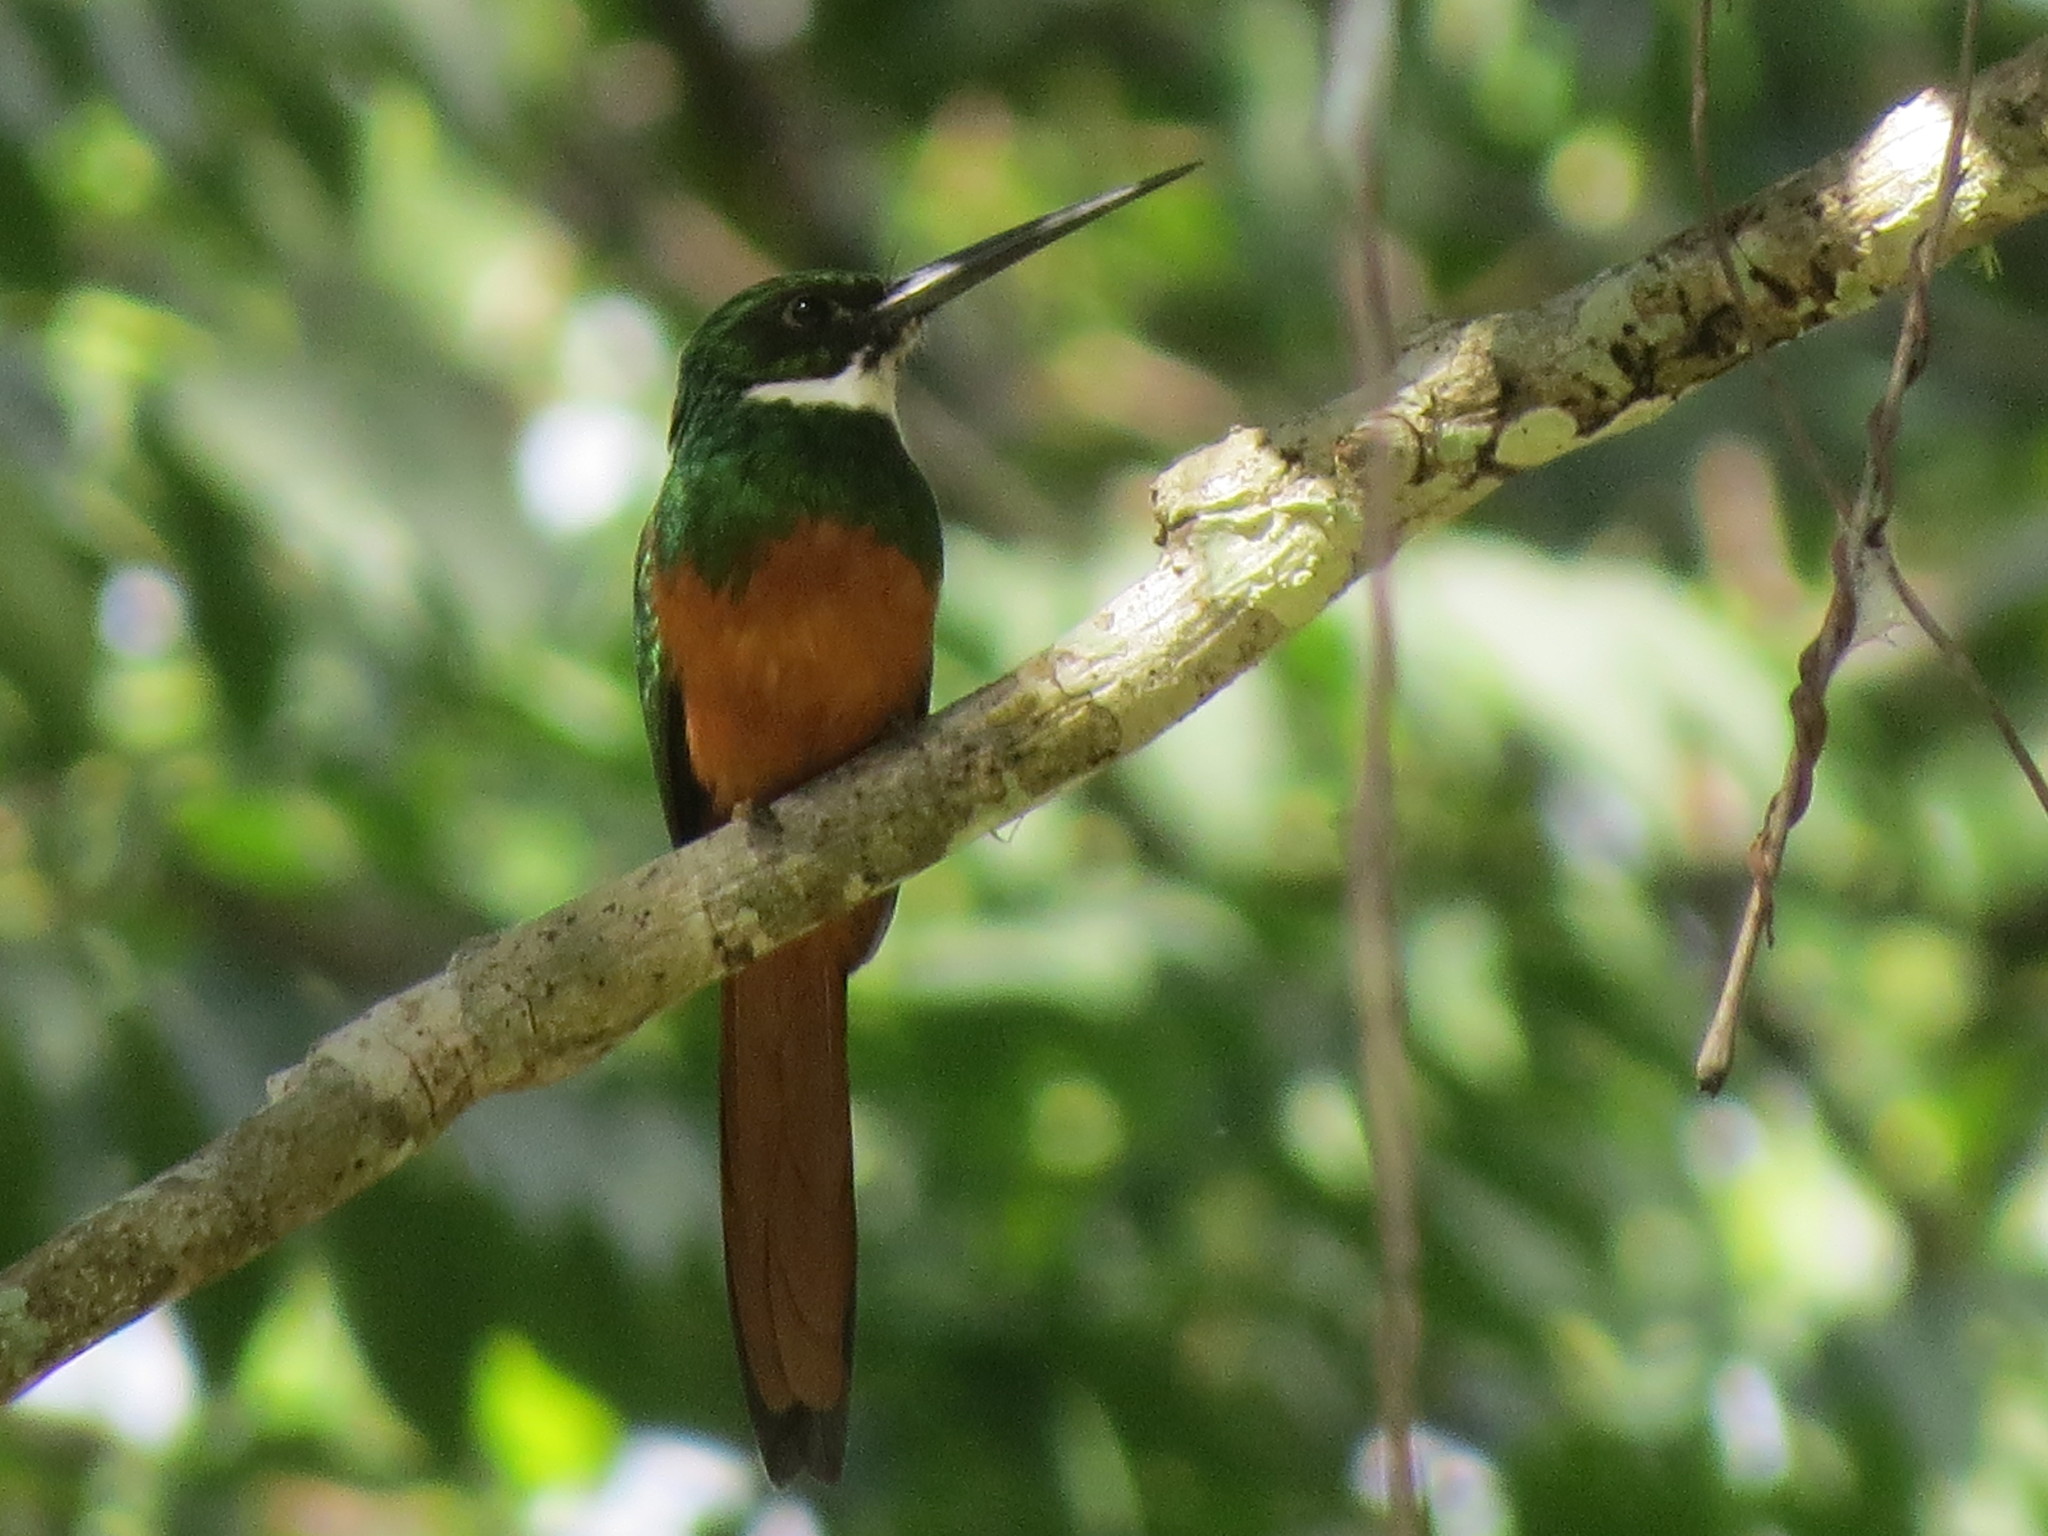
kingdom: Animalia
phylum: Chordata
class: Aves
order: Piciformes
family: Galbulidae
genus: Galbula
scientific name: Galbula ruficauda
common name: Rufous-tailed jacamar
